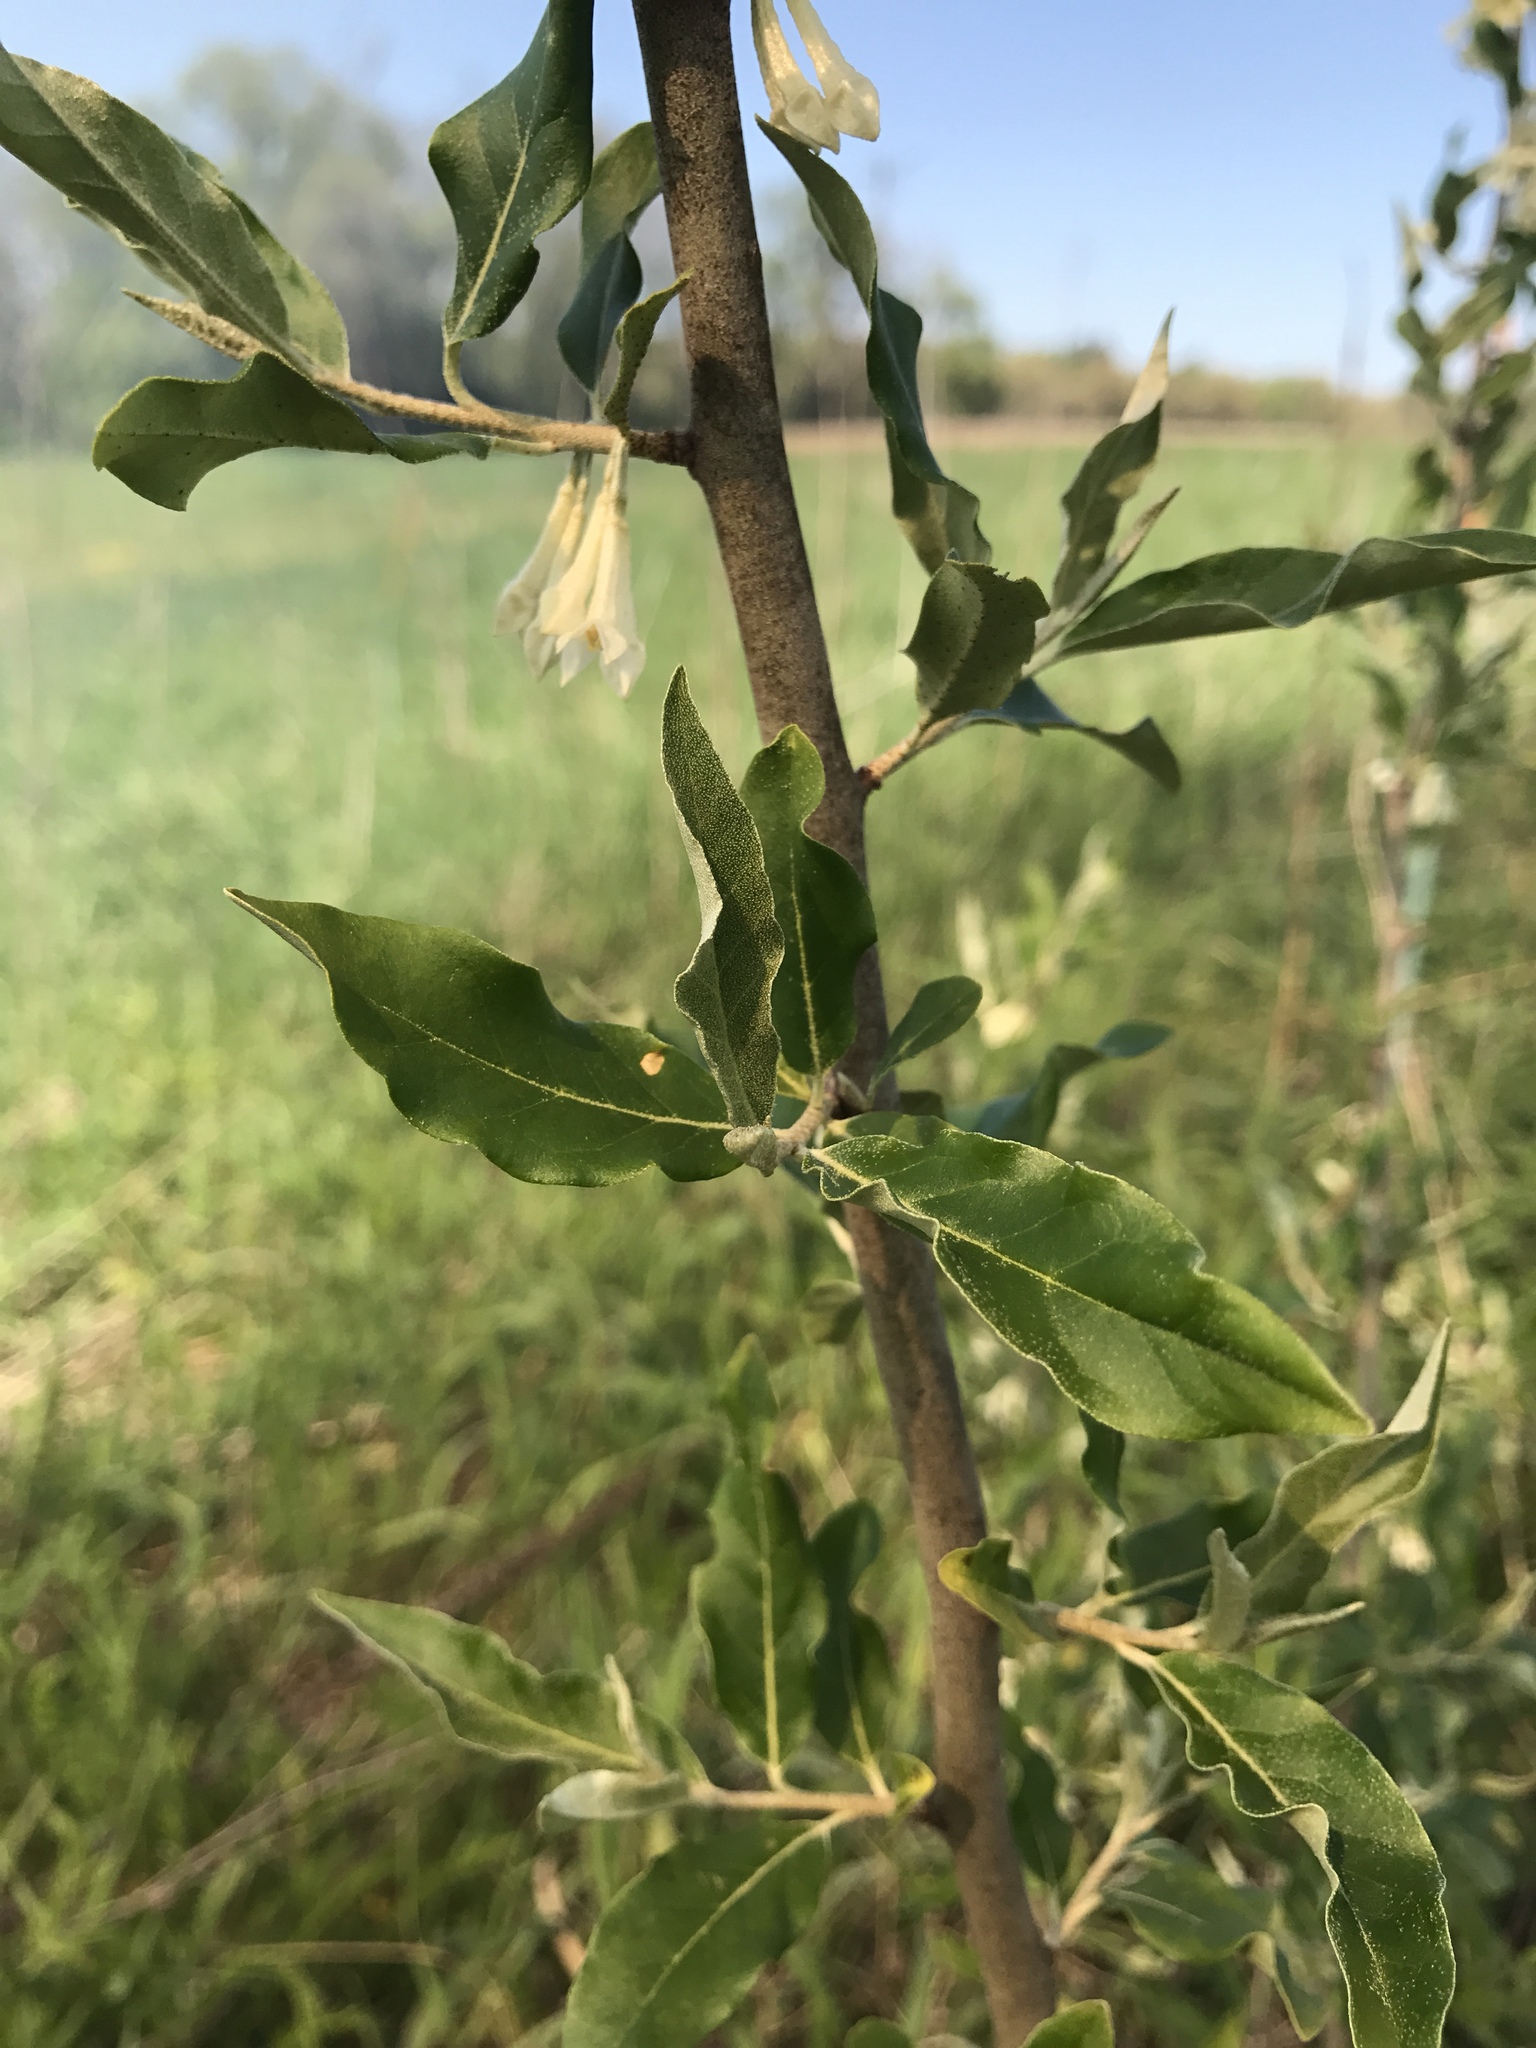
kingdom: Plantae
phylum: Tracheophyta
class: Magnoliopsida
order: Rosales
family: Elaeagnaceae
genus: Elaeagnus
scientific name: Elaeagnus umbellata
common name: Autumn olive
